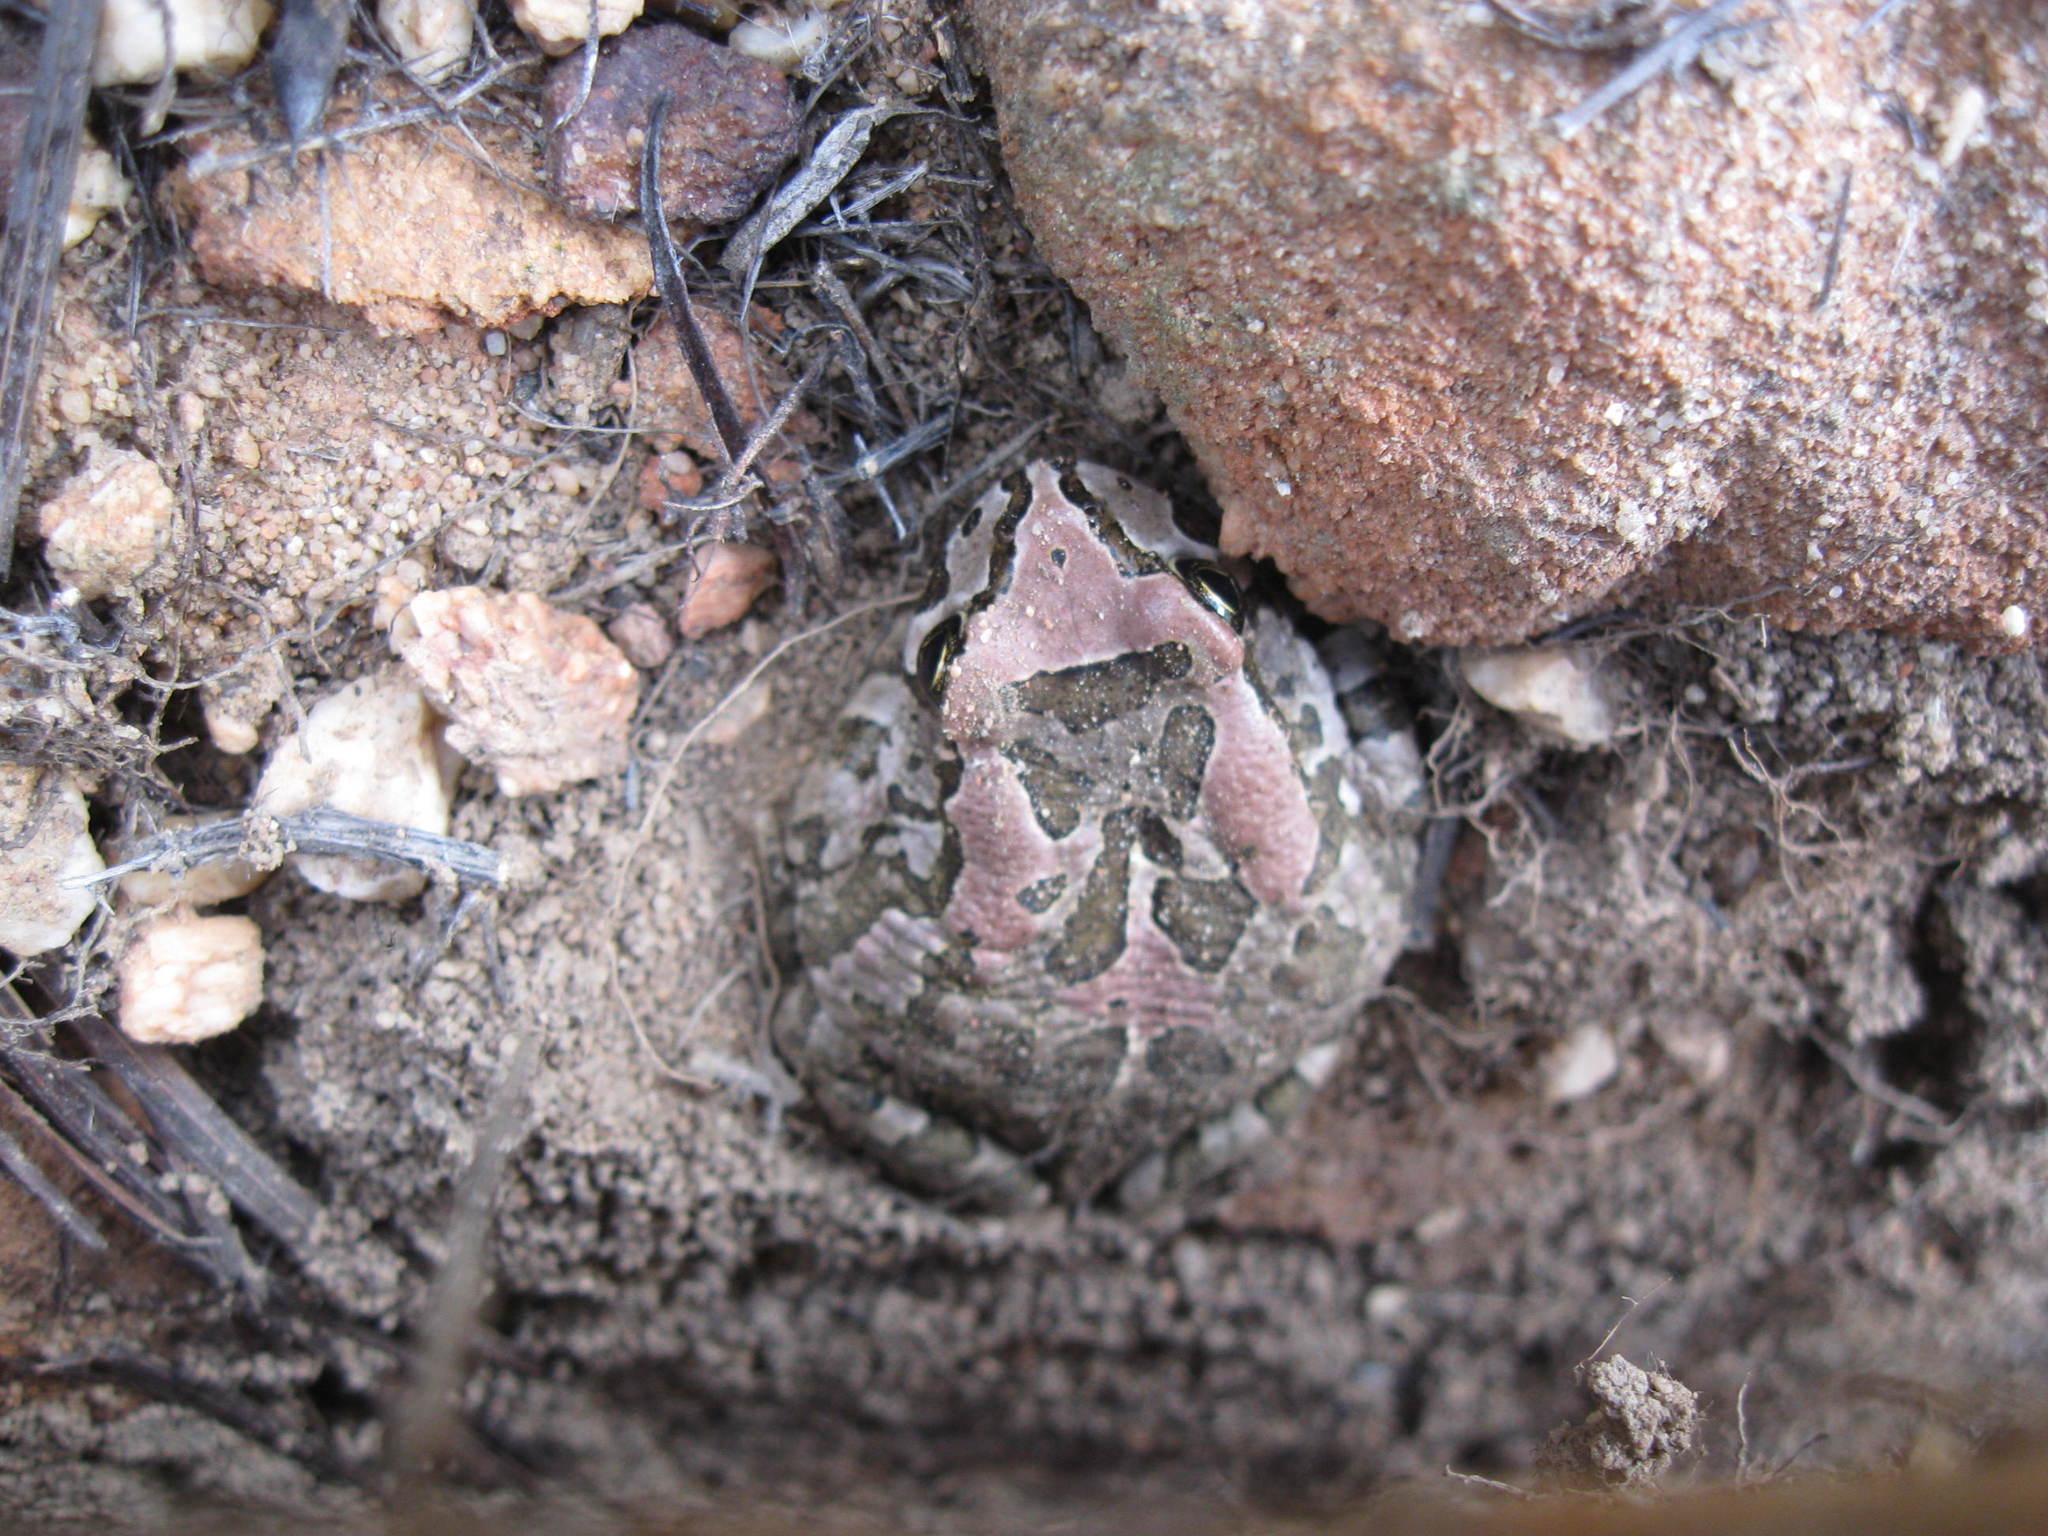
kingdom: Animalia
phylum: Chordata
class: Amphibia
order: Anura
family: Bufonidae
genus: Sclerophrys
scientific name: Sclerophrys capensis
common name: Ranger’s toad
